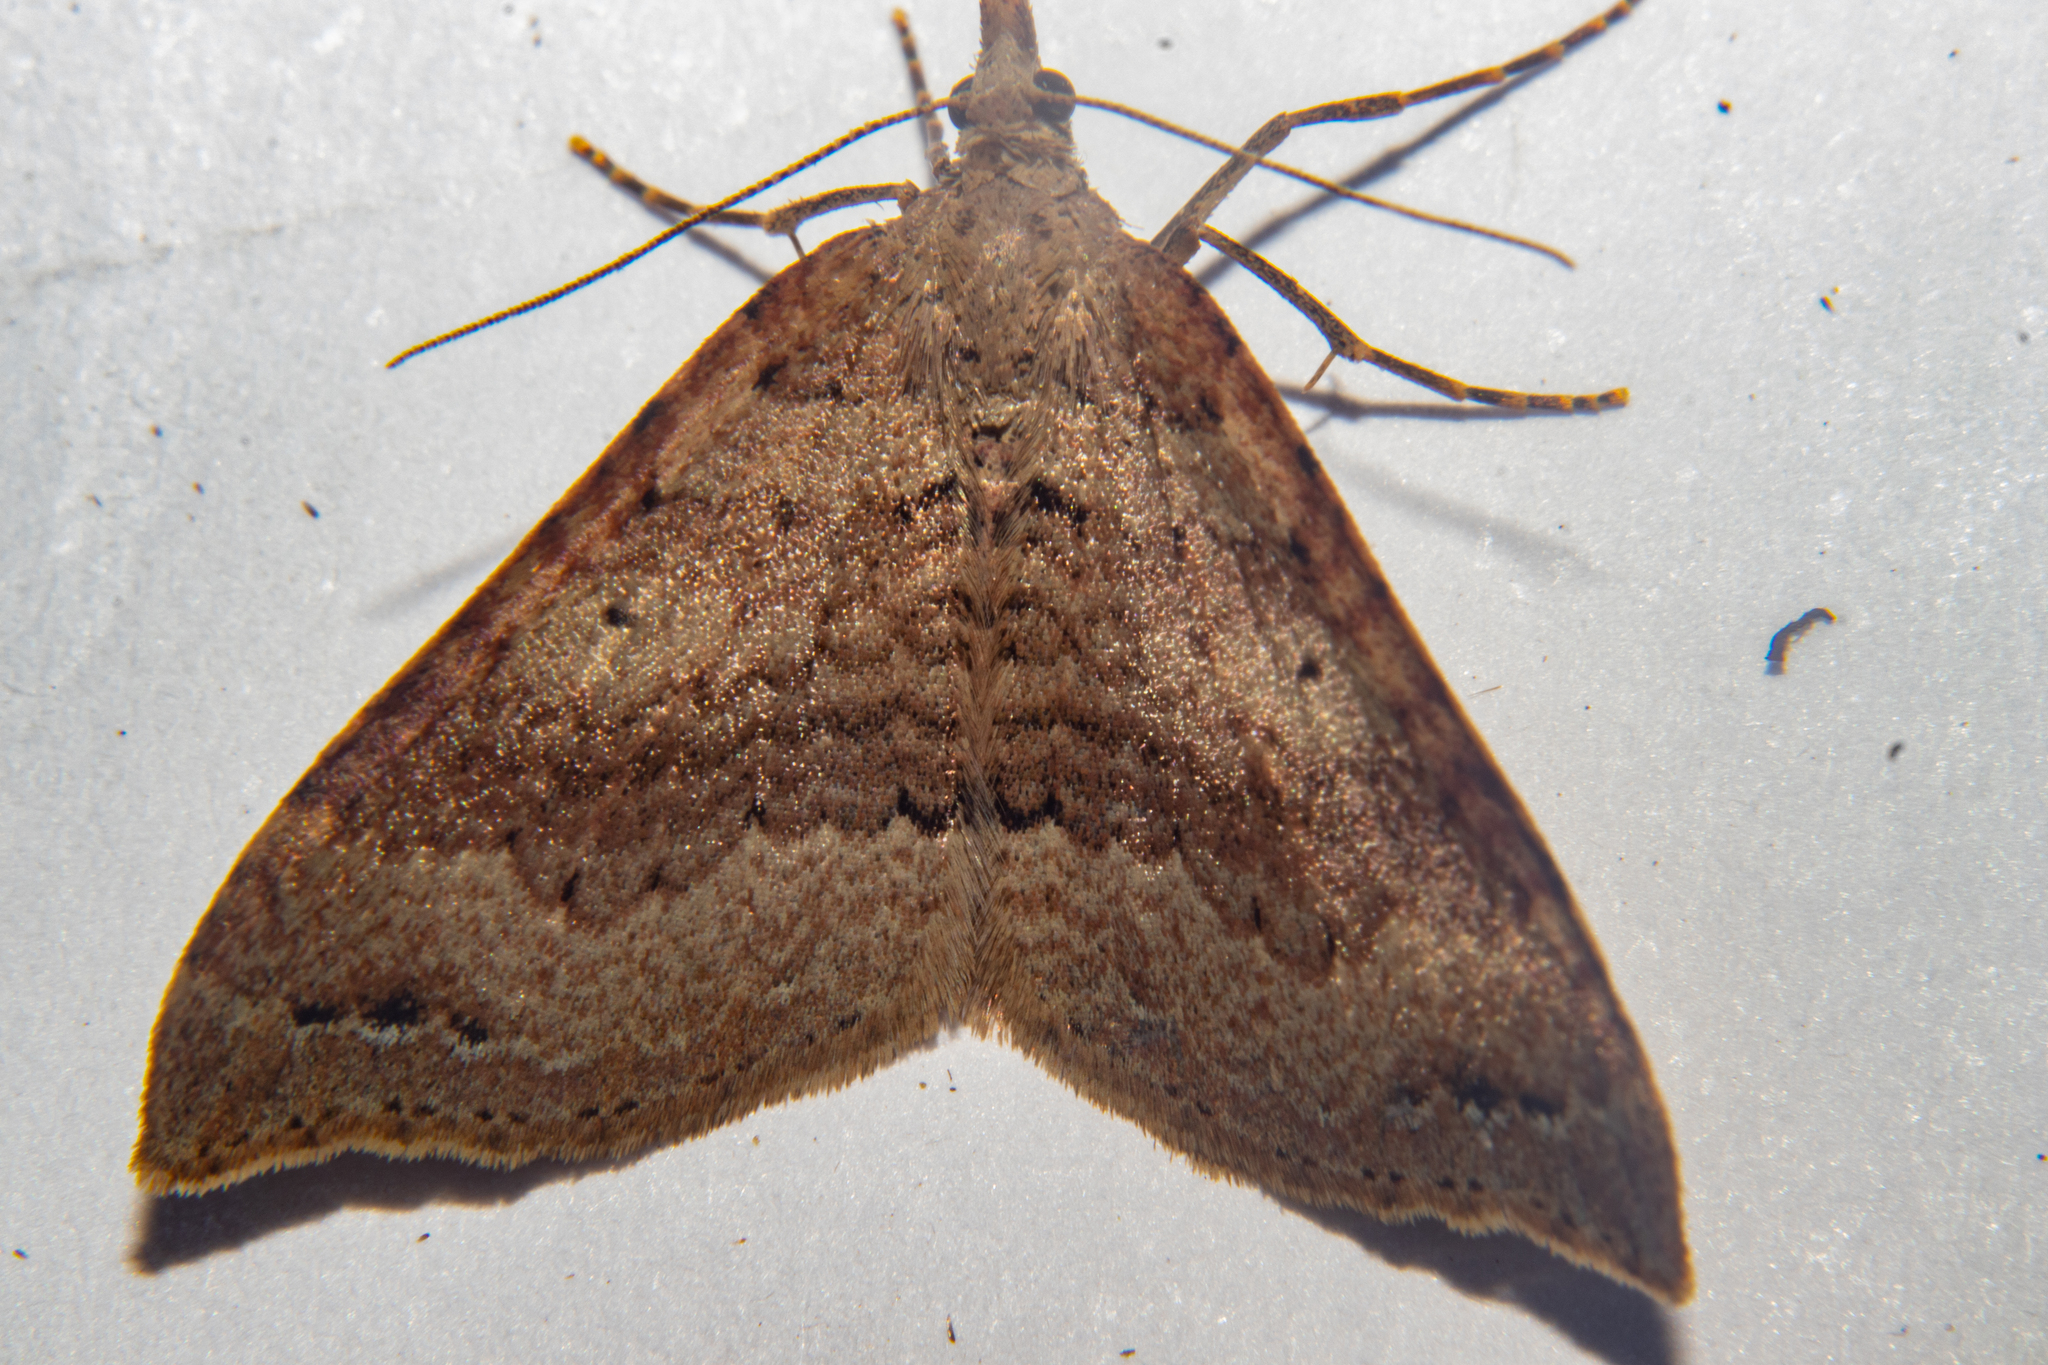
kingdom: Animalia
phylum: Arthropoda
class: Insecta
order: Lepidoptera
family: Geometridae
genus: Homodotis
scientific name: Homodotis falcata
